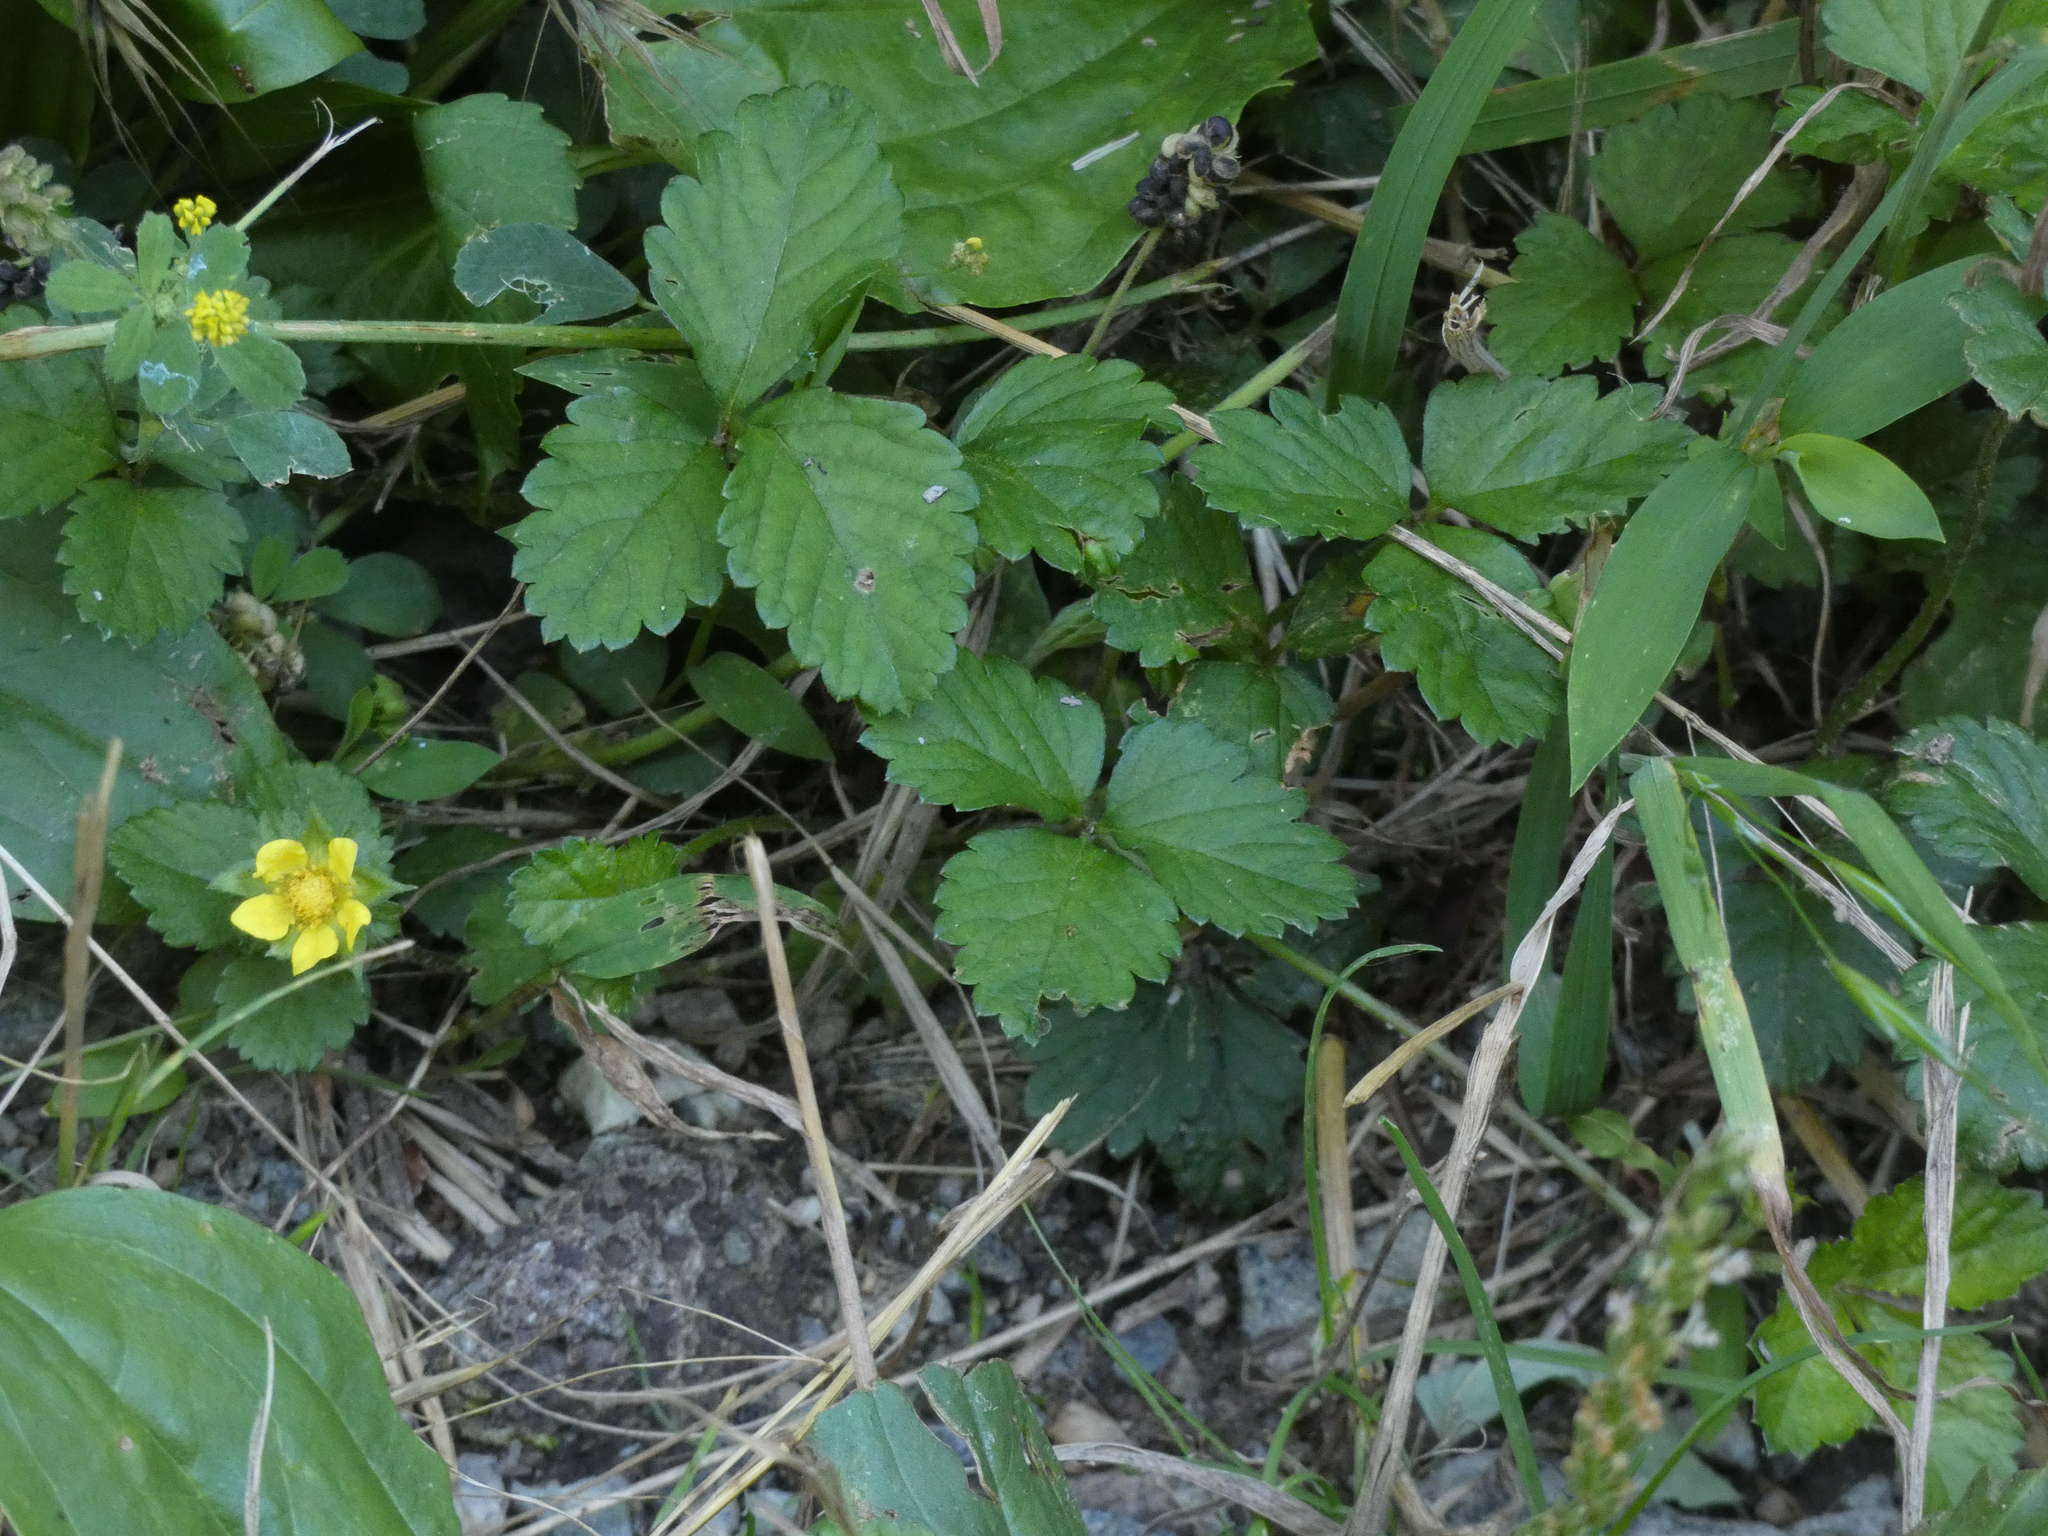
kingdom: Plantae
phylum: Tracheophyta
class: Magnoliopsida
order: Rosales
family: Rosaceae
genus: Potentilla
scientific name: Potentilla indica
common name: Yellow-flowered strawberry
